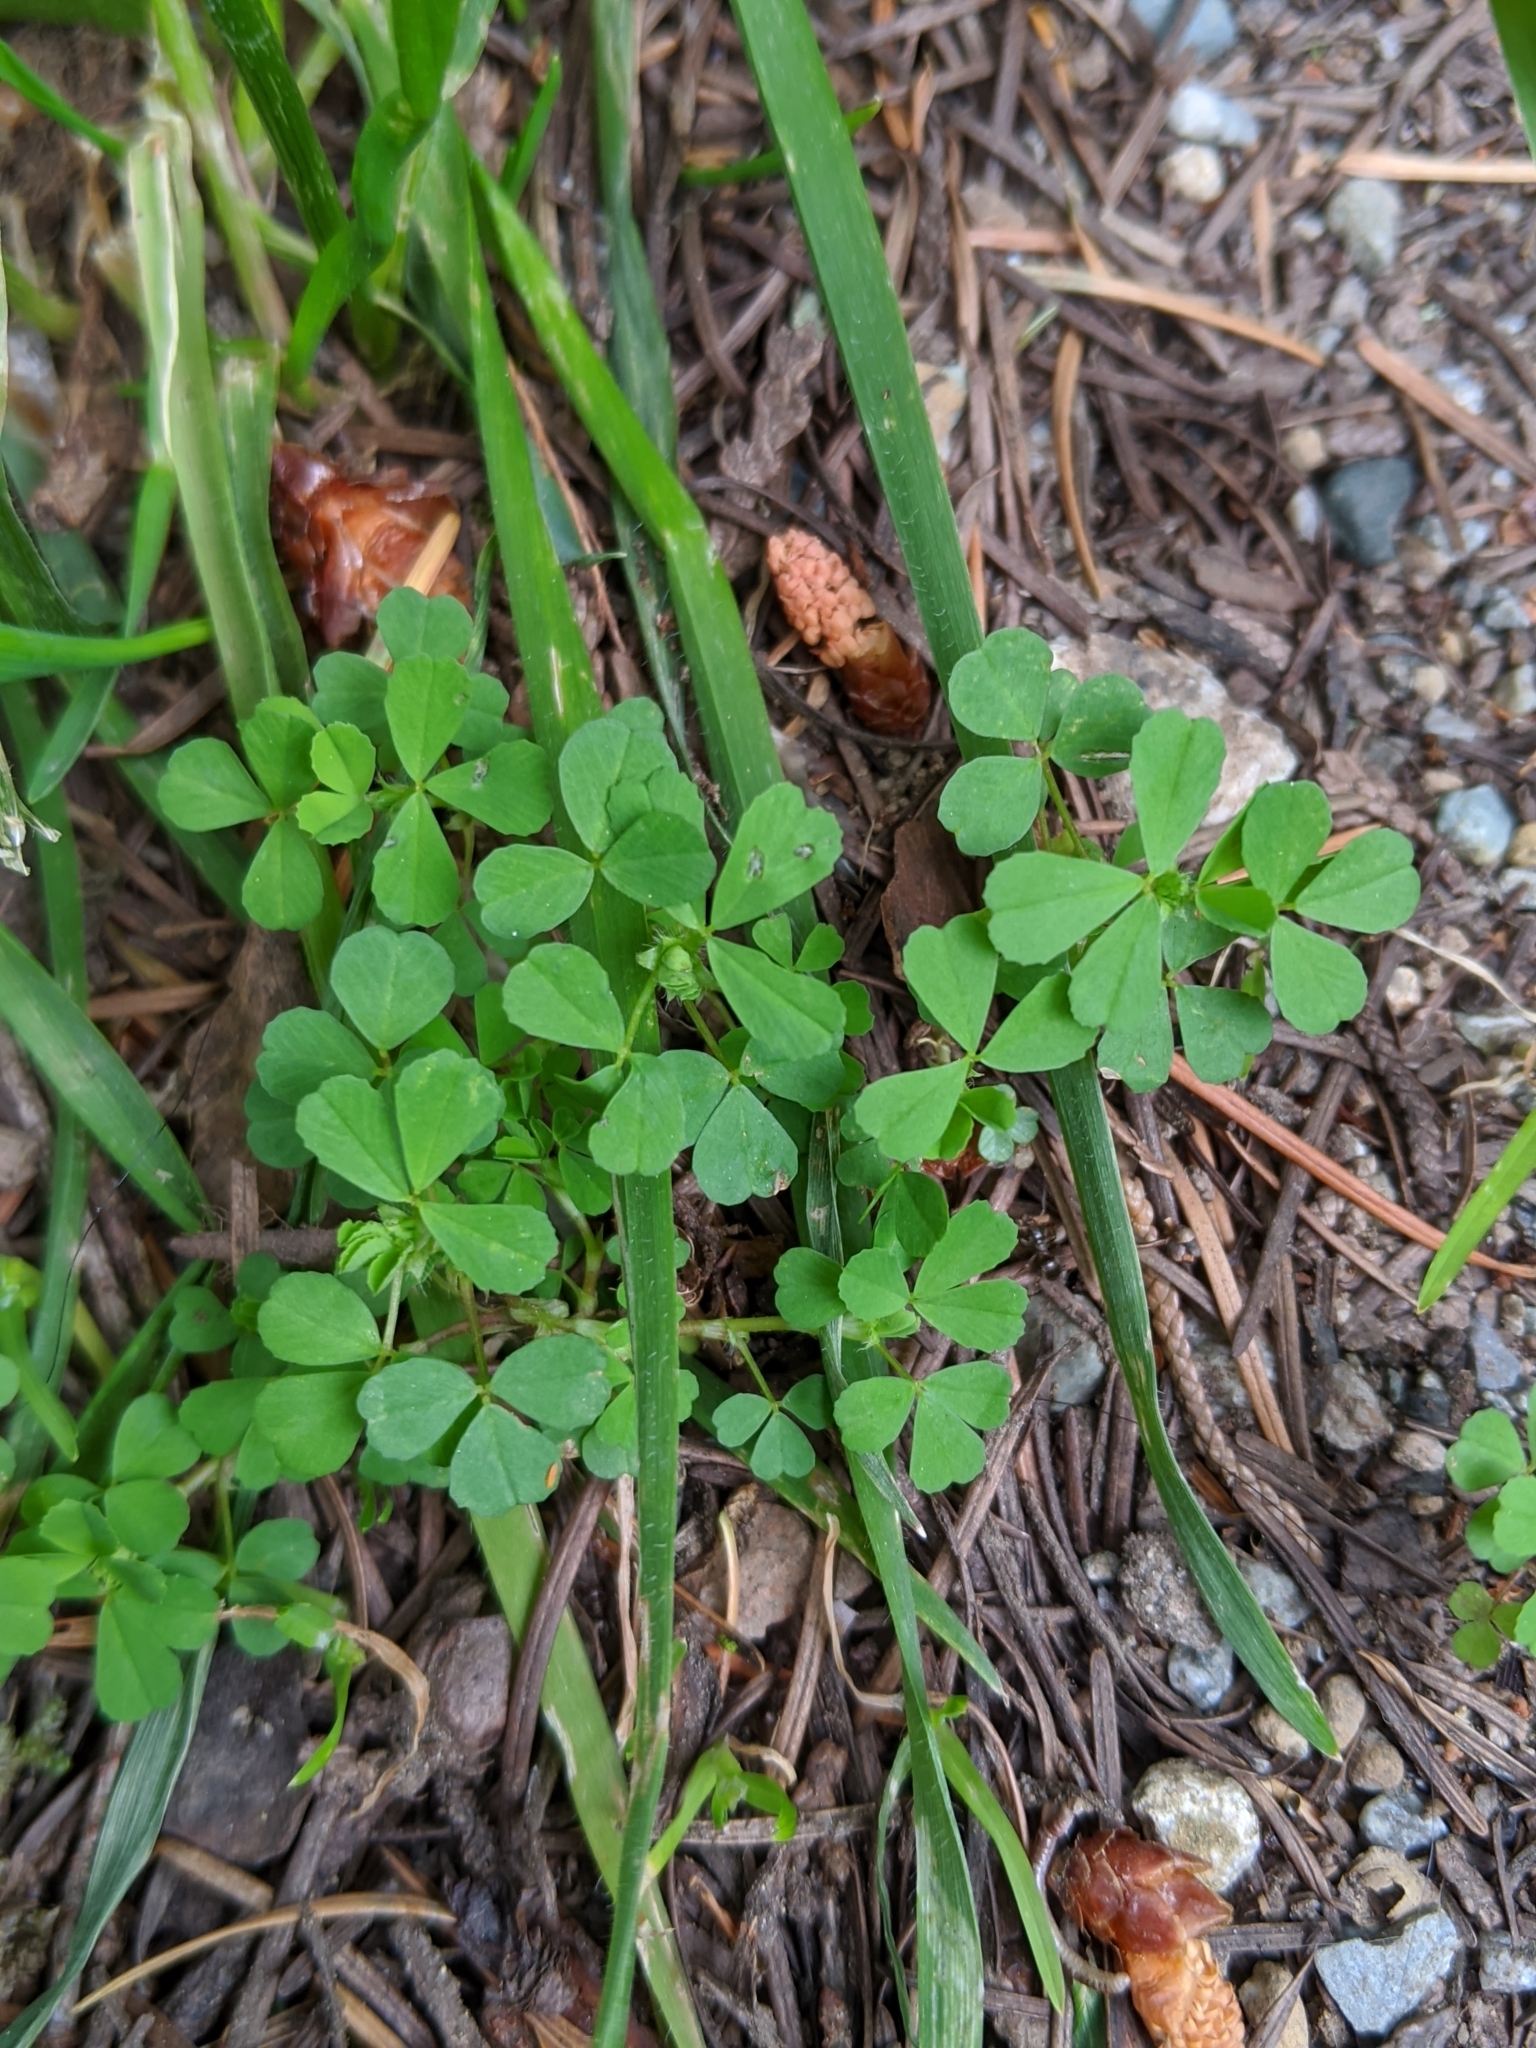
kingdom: Plantae
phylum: Tracheophyta
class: Magnoliopsida
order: Fabales
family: Fabaceae
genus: Medicago
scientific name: Medicago polymorpha
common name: Burclover
